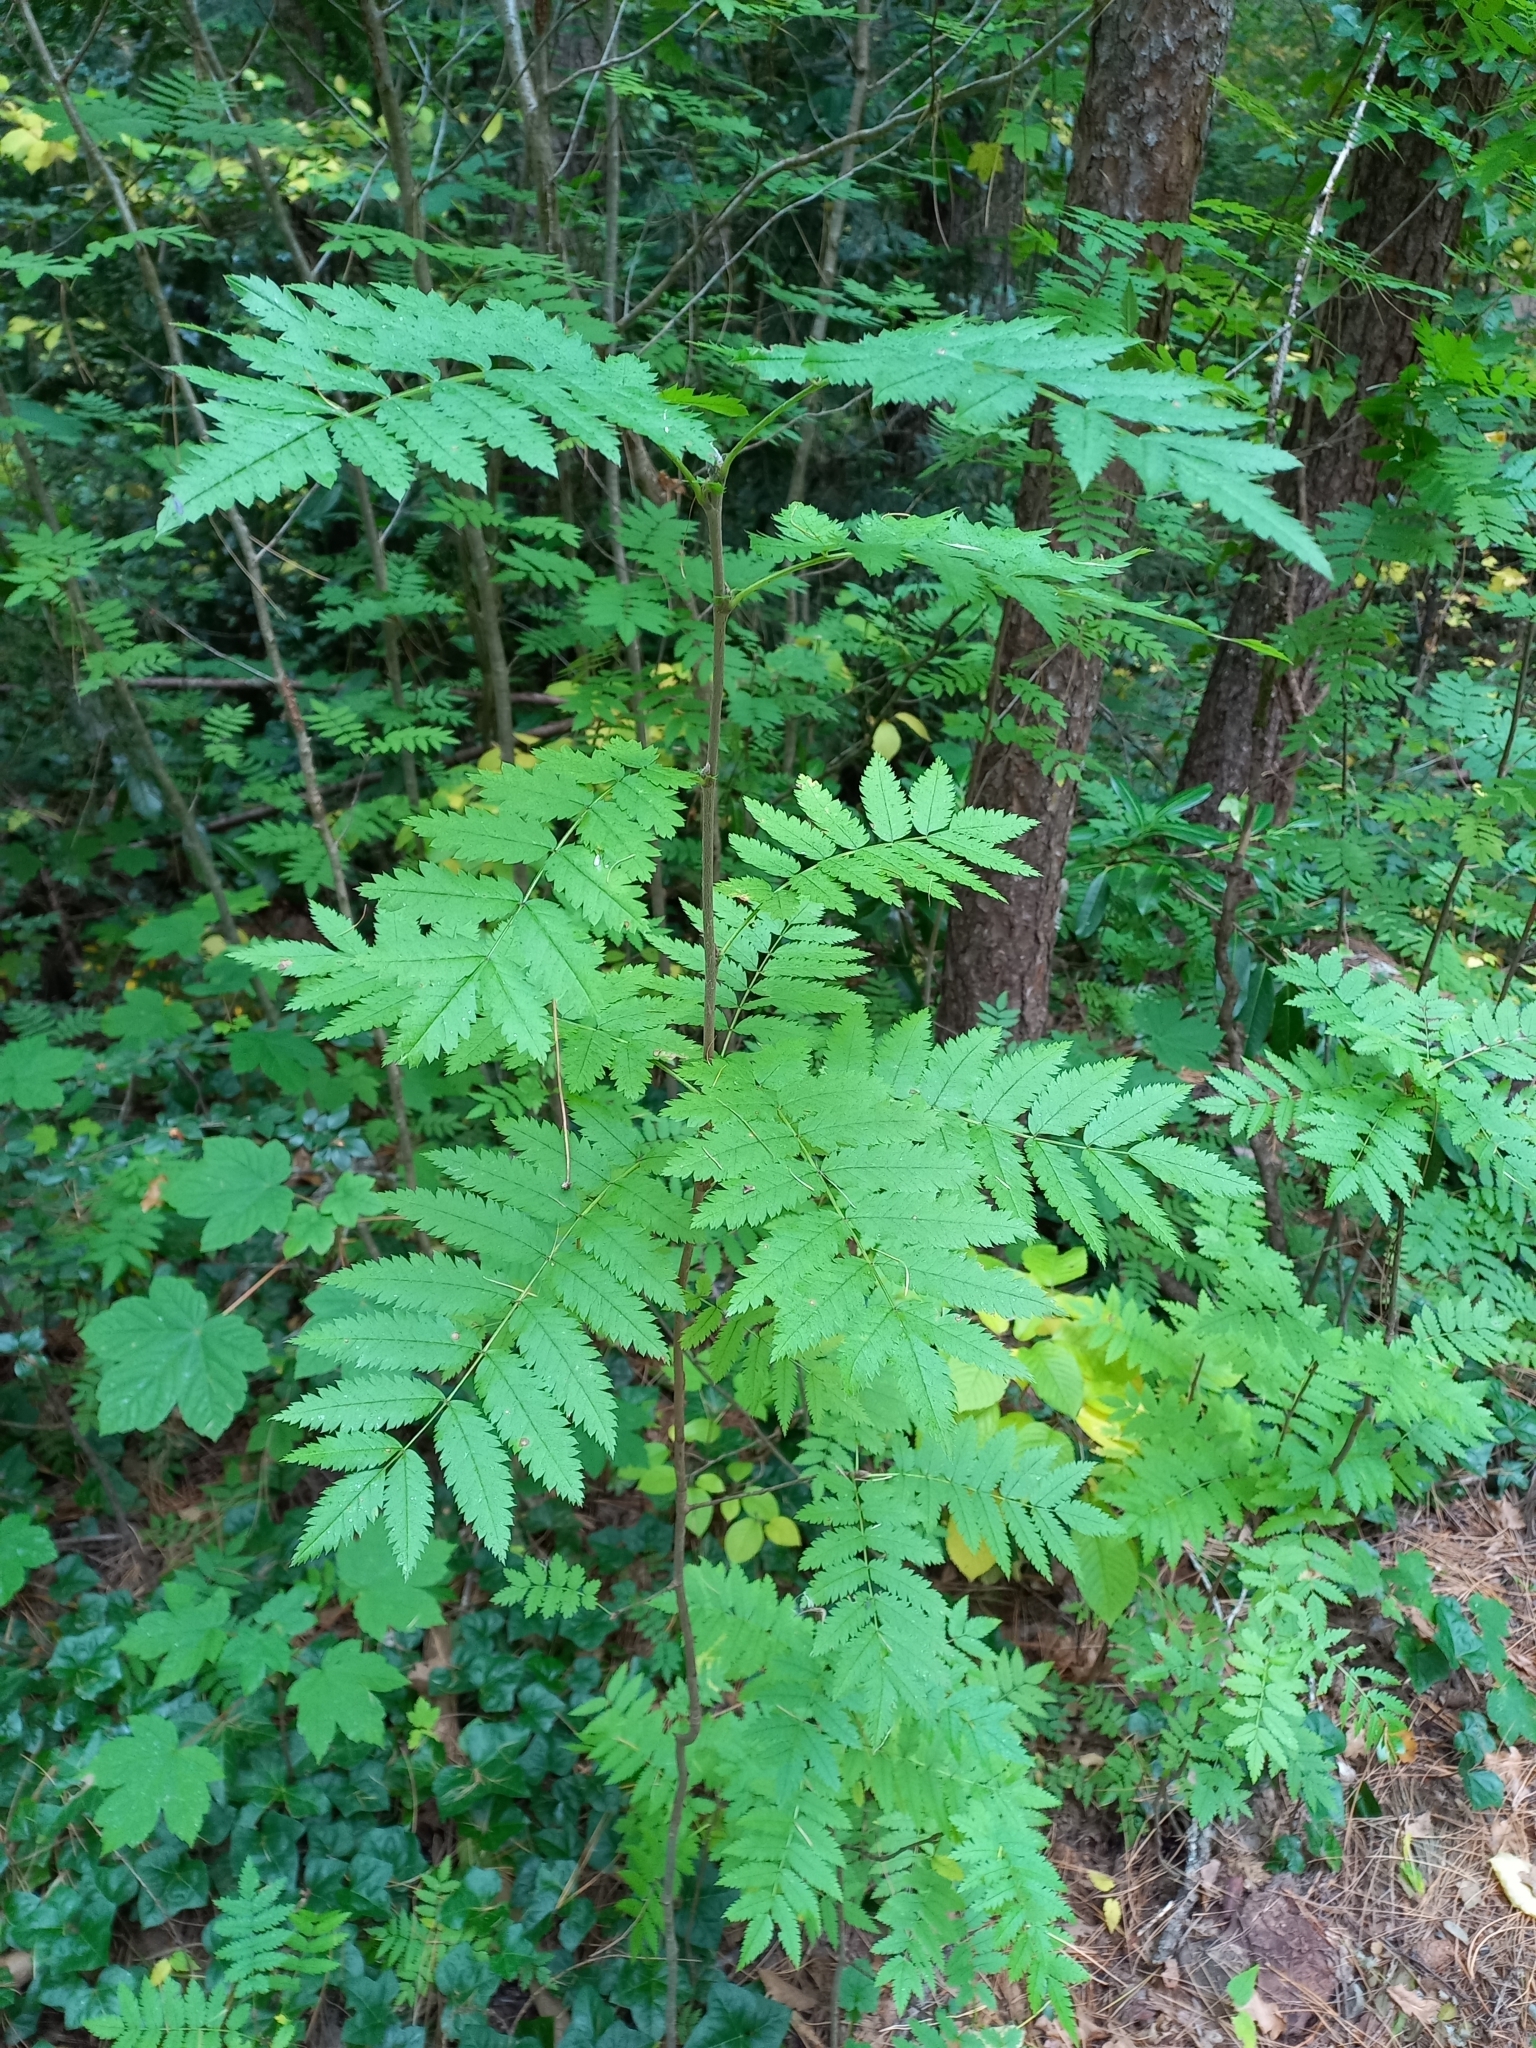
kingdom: Plantae
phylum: Tracheophyta
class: Magnoliopsida
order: Rosales
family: Rosaceae
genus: Sorbus
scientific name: Sorbus aucuparia
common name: Rowan
